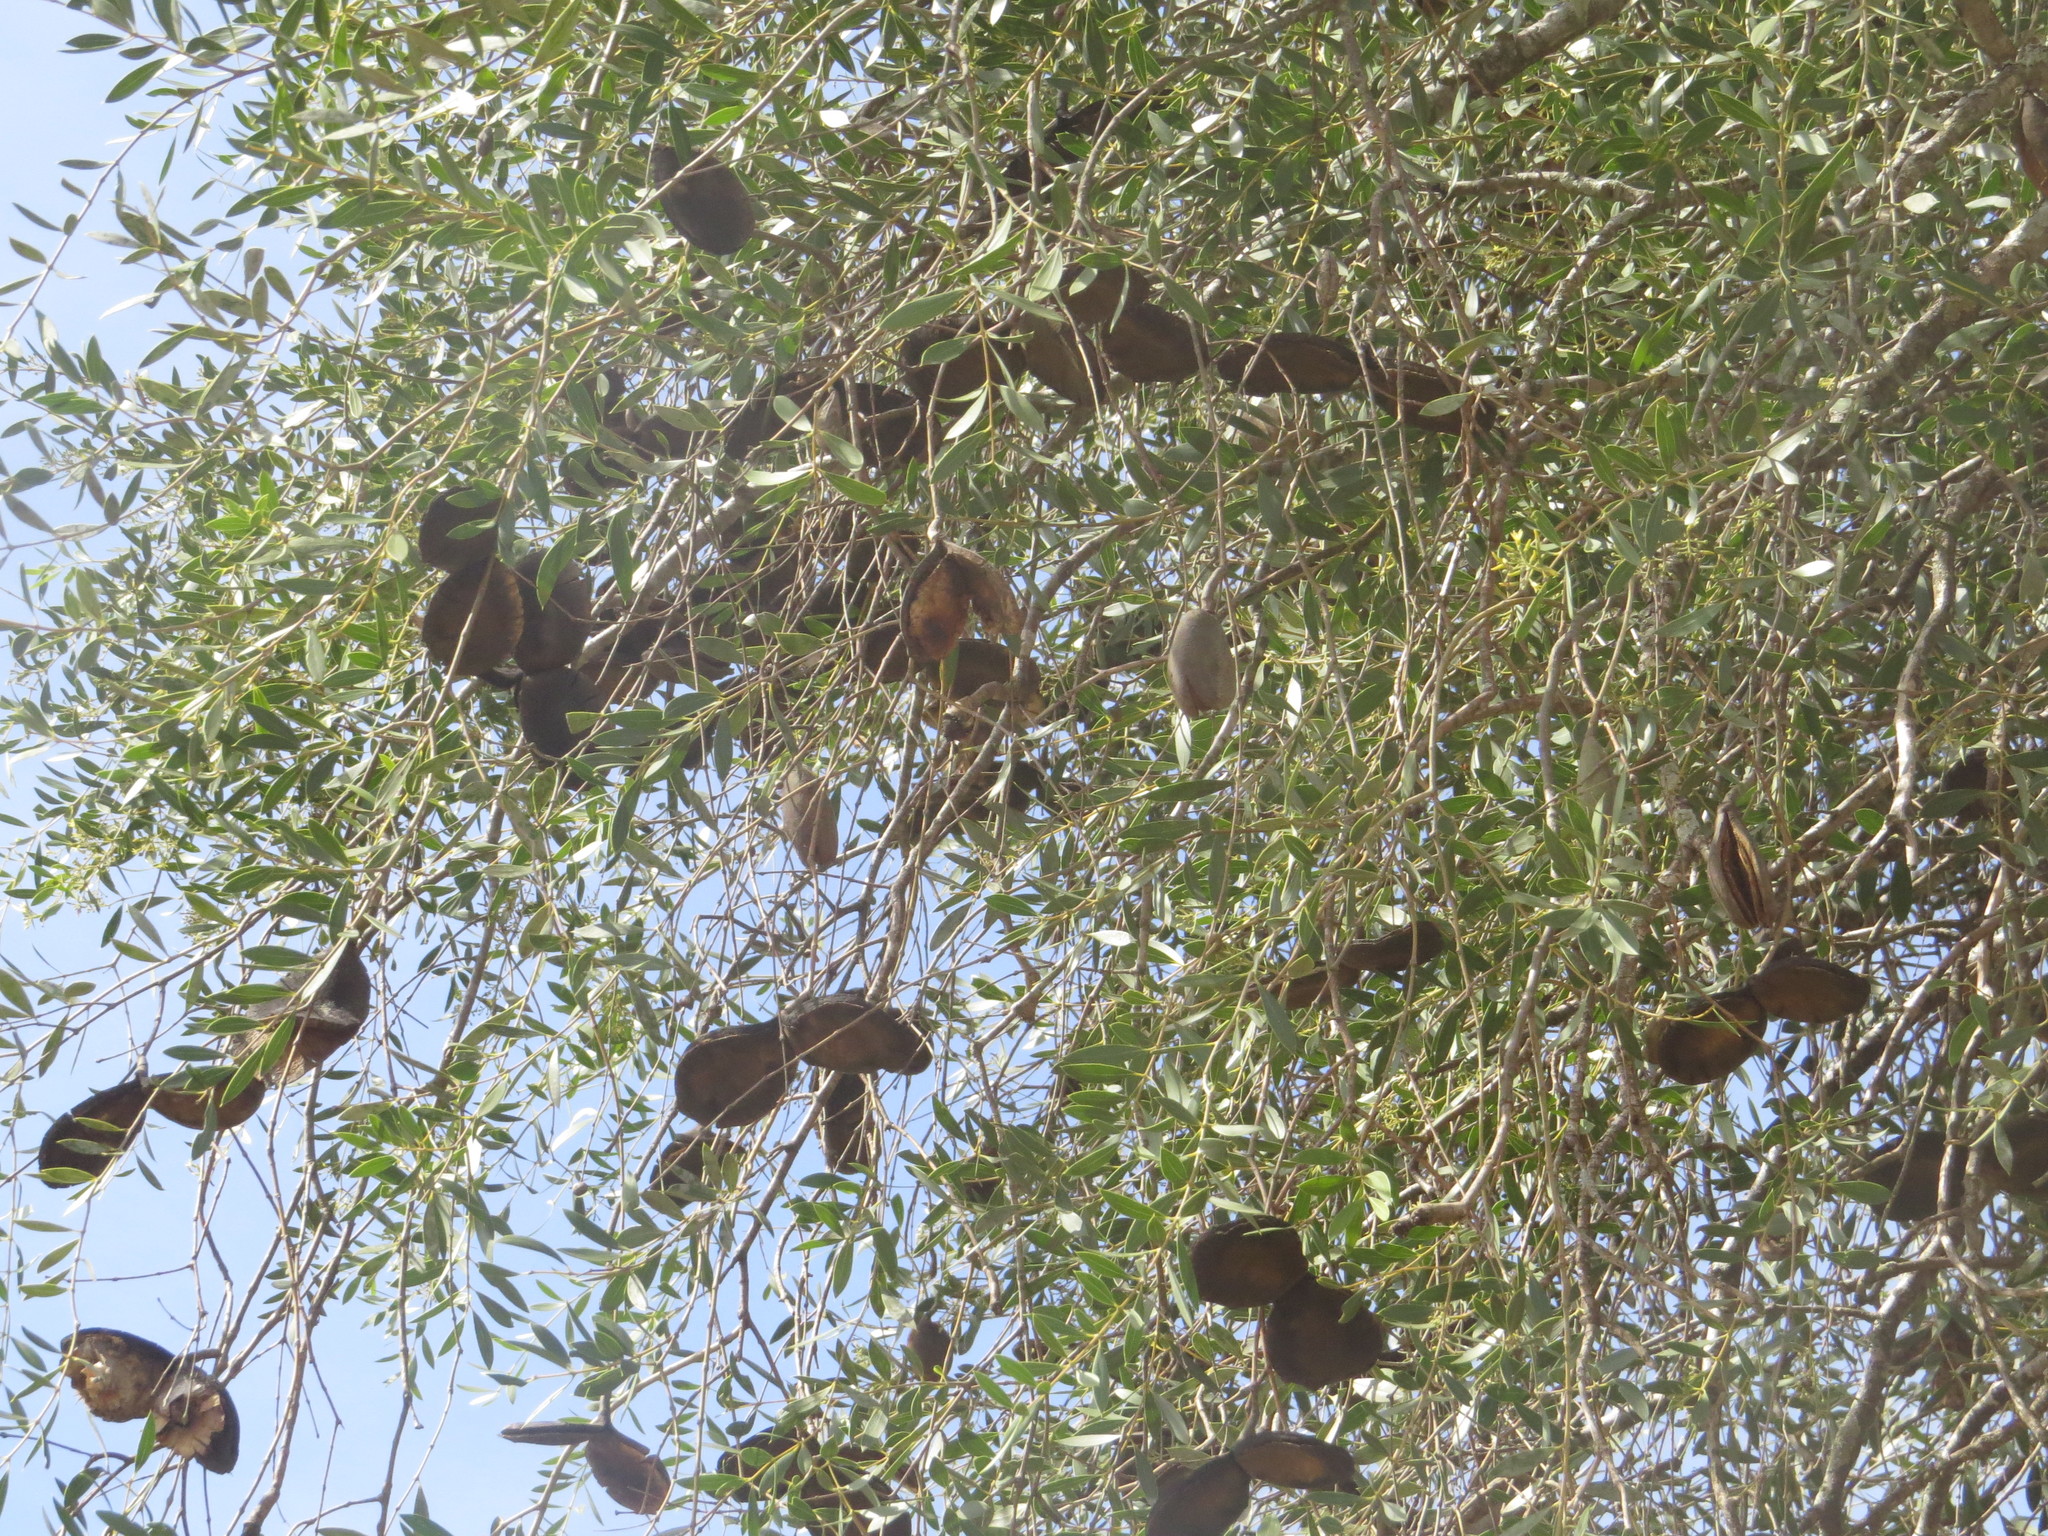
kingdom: Plantae
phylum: Tracheophyta
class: Magnoliopsida
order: Gentianales
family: Apocynaceae
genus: Aspidosperma
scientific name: Aspidosperma quebracho-blanco
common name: White quebracho
